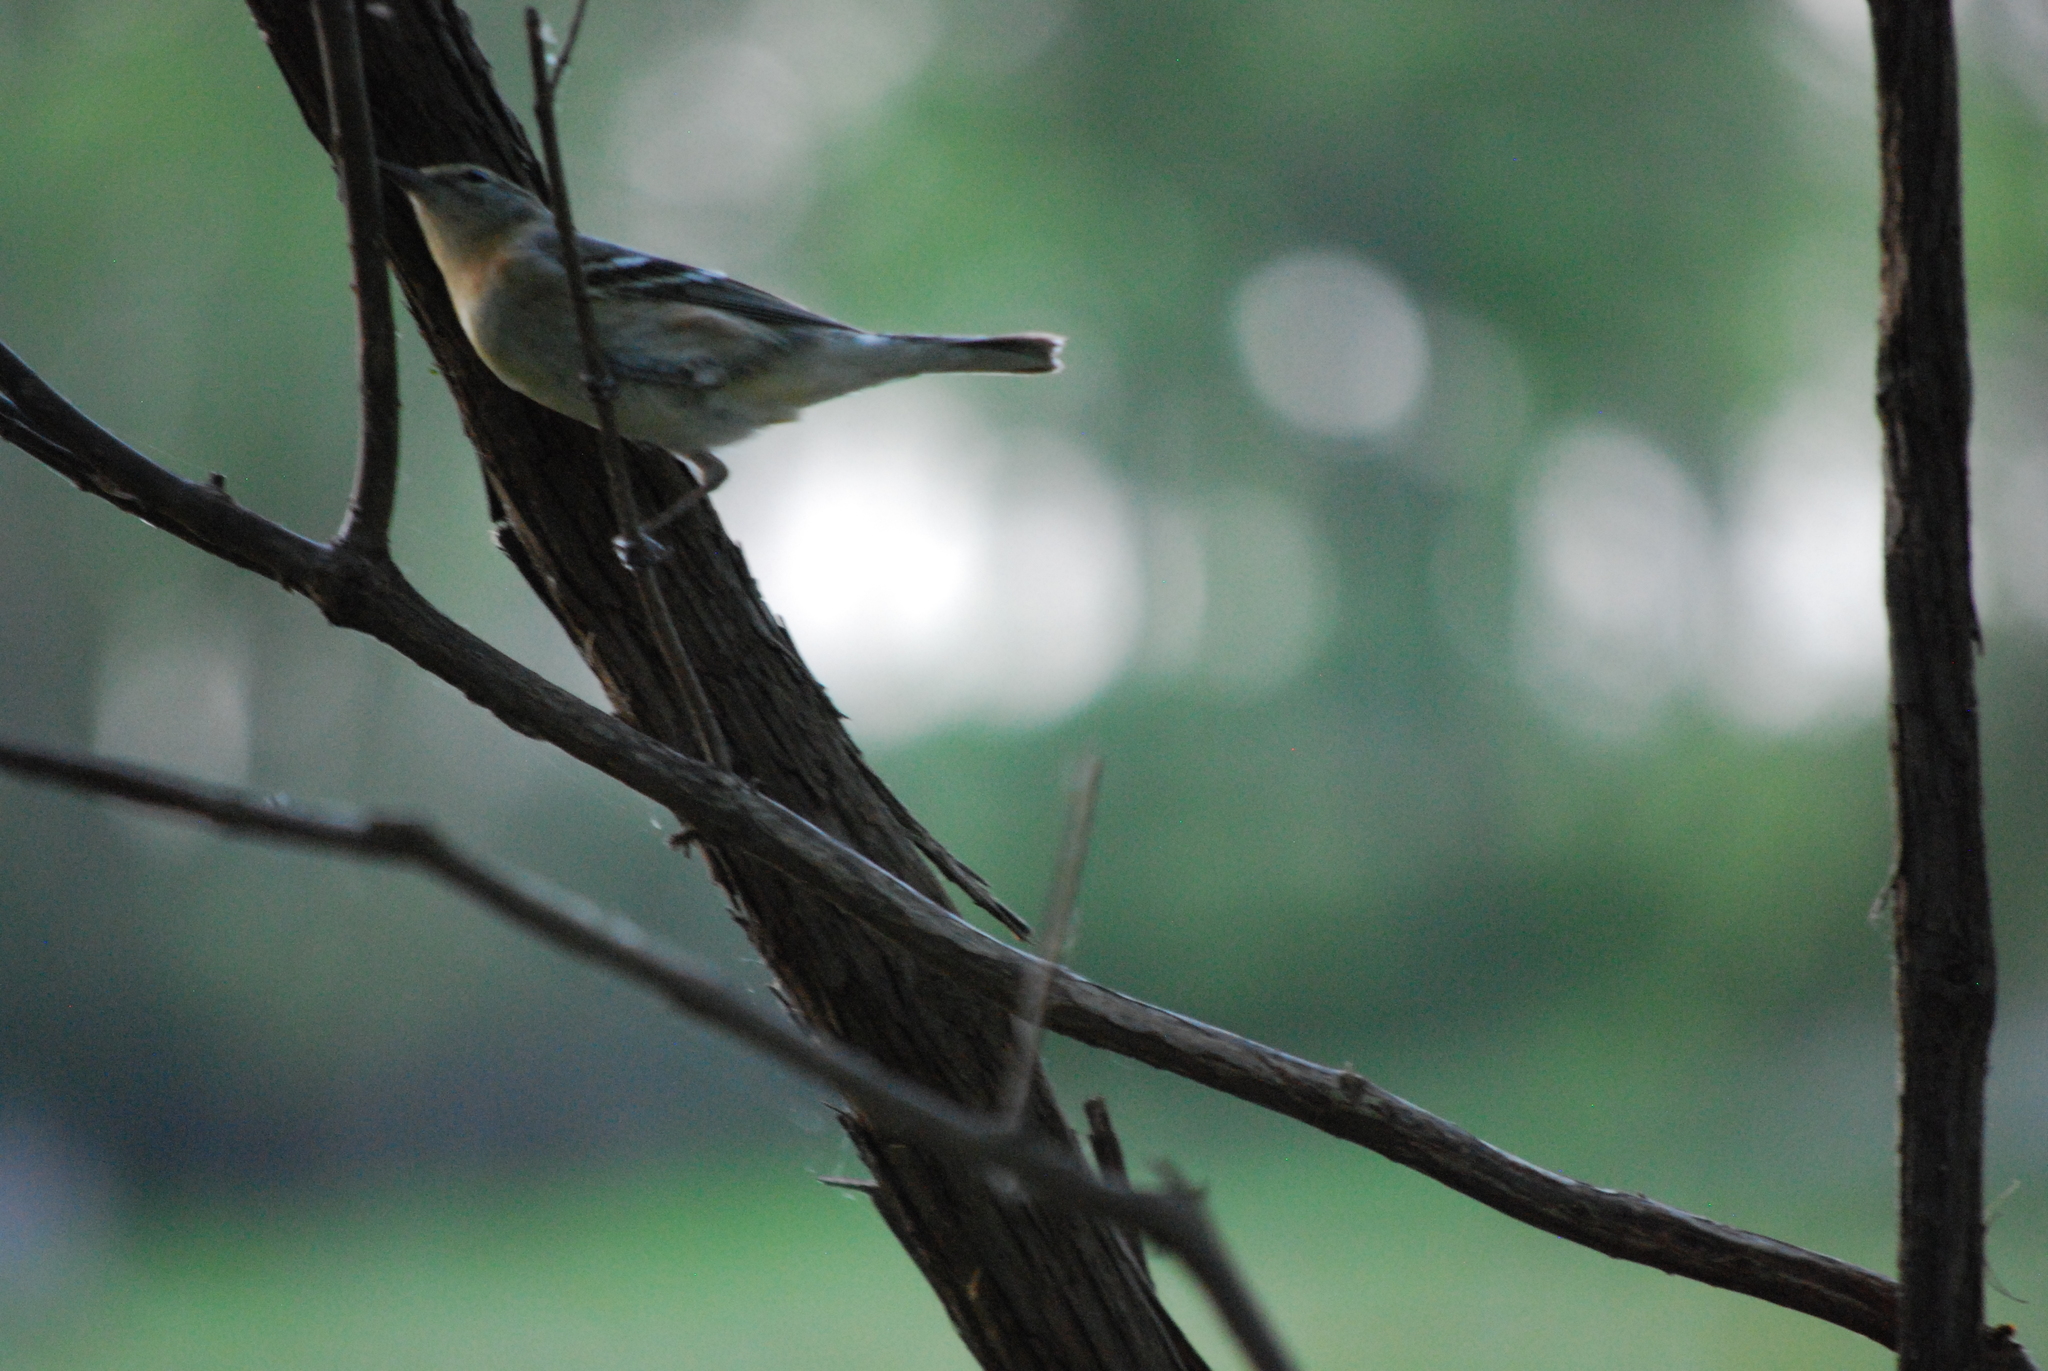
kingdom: Animalia
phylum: Chordata
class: Aves
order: Passeriformes
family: Parulidae
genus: Setophaga
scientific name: Setophaga castanea
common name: Bay-breasted warbler
